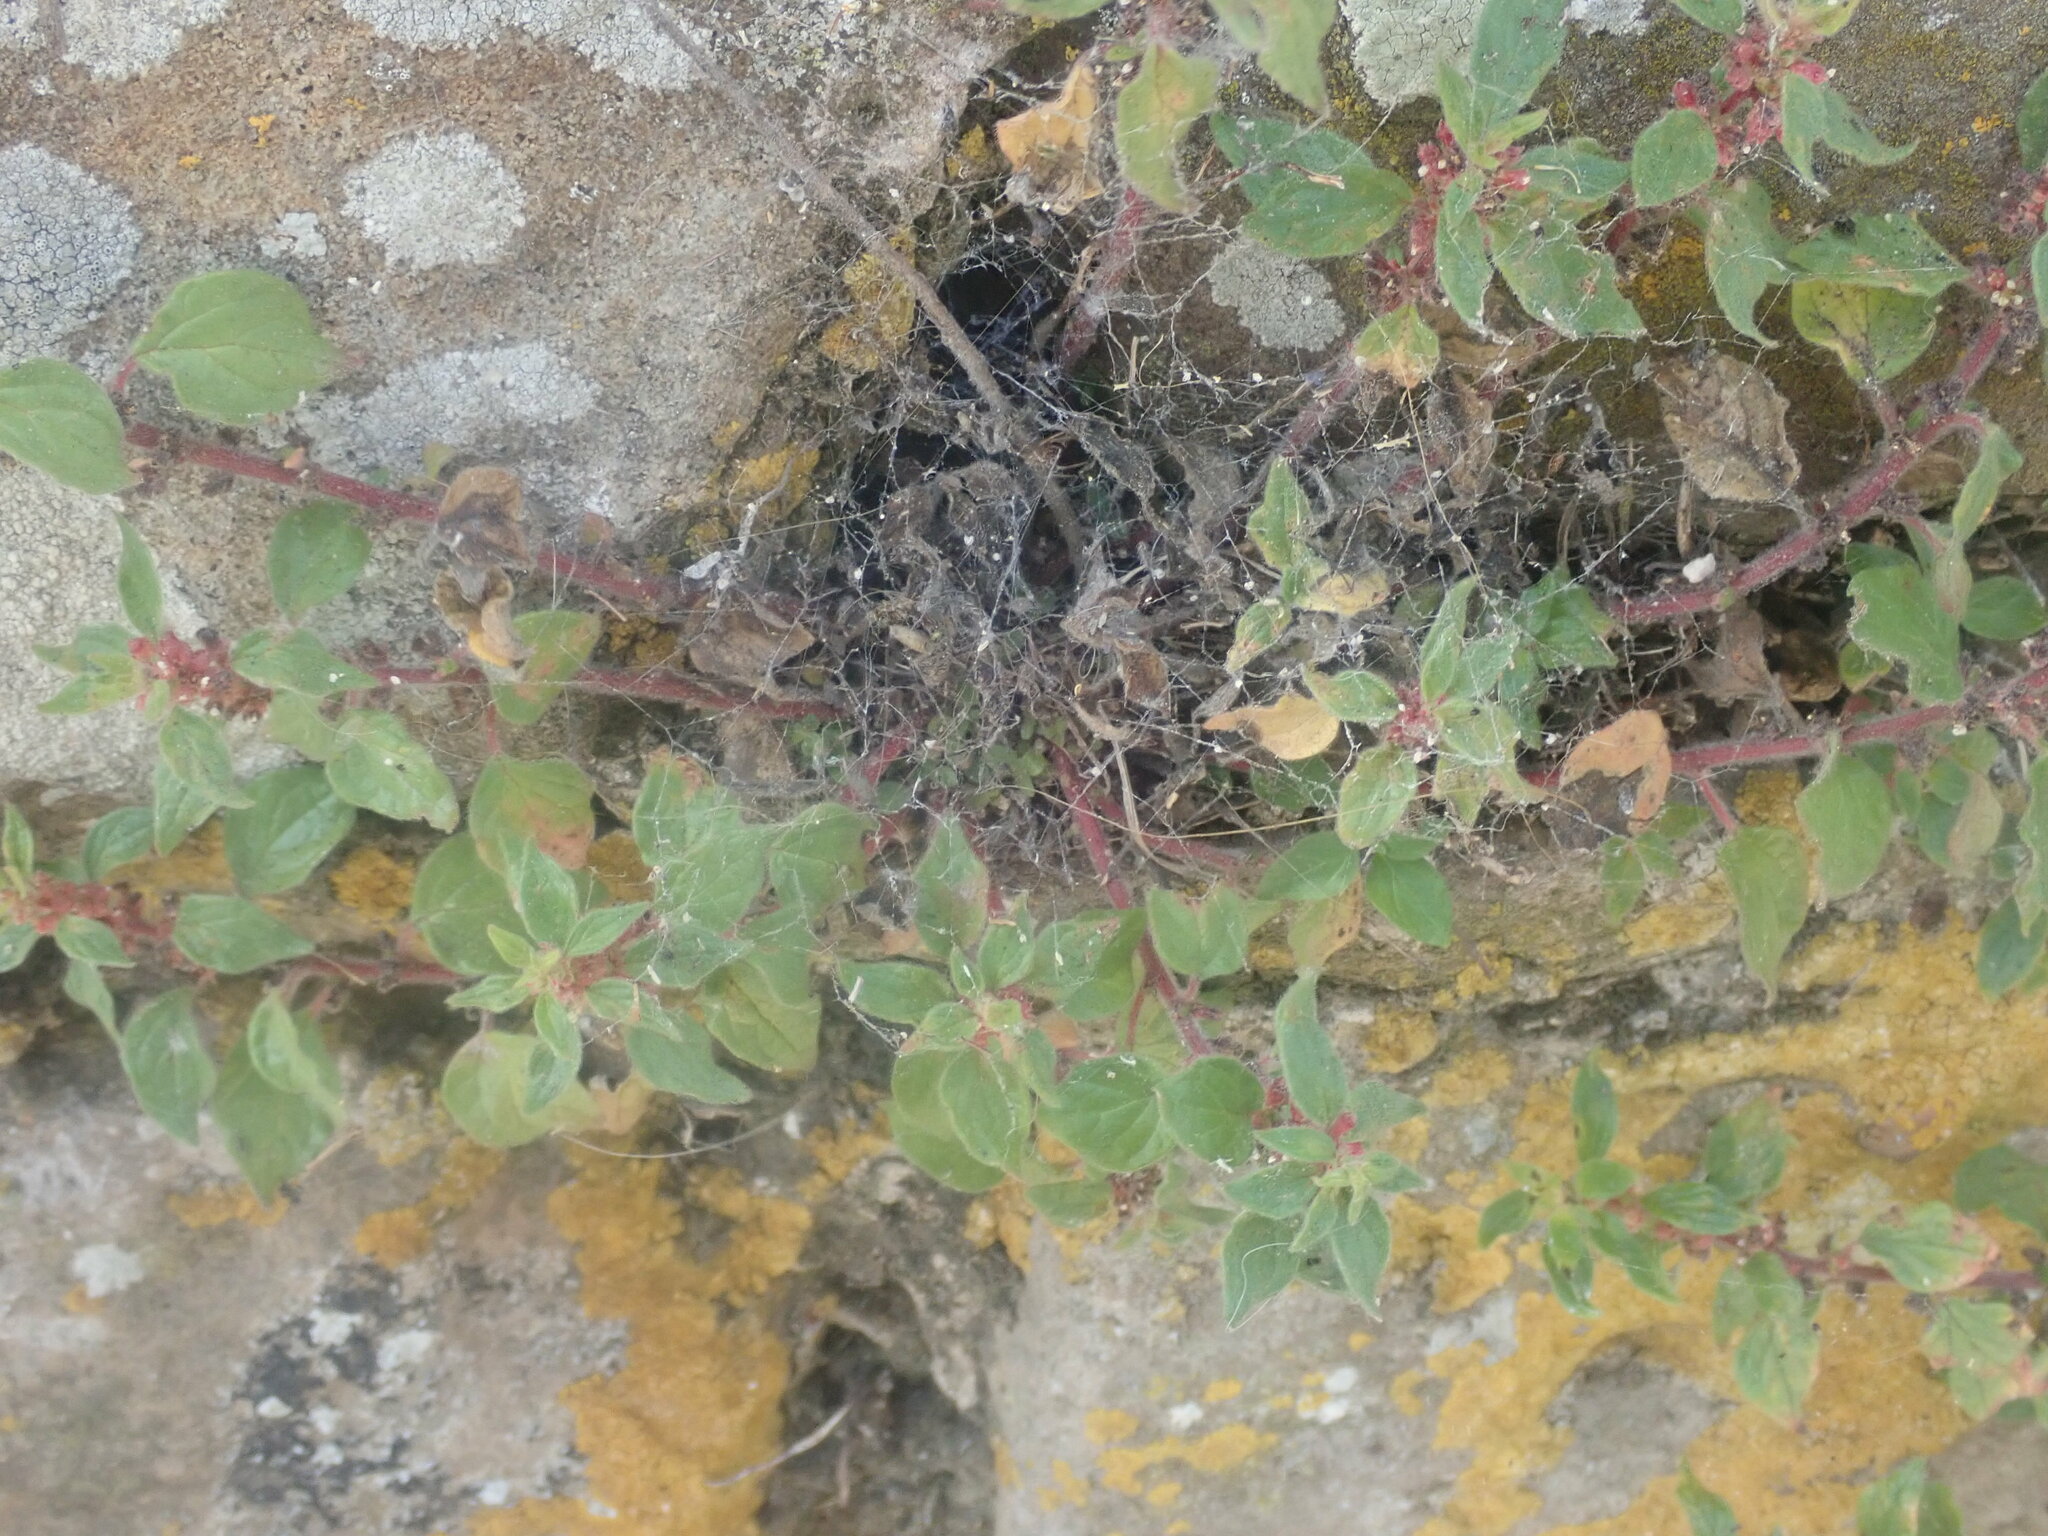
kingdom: Plantae
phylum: Tracheophyta
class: Magnoliopsida
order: Rosales
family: Urticaceae
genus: Parietaria
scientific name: Parietaria judaica
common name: Pellitory-of-the-wall
